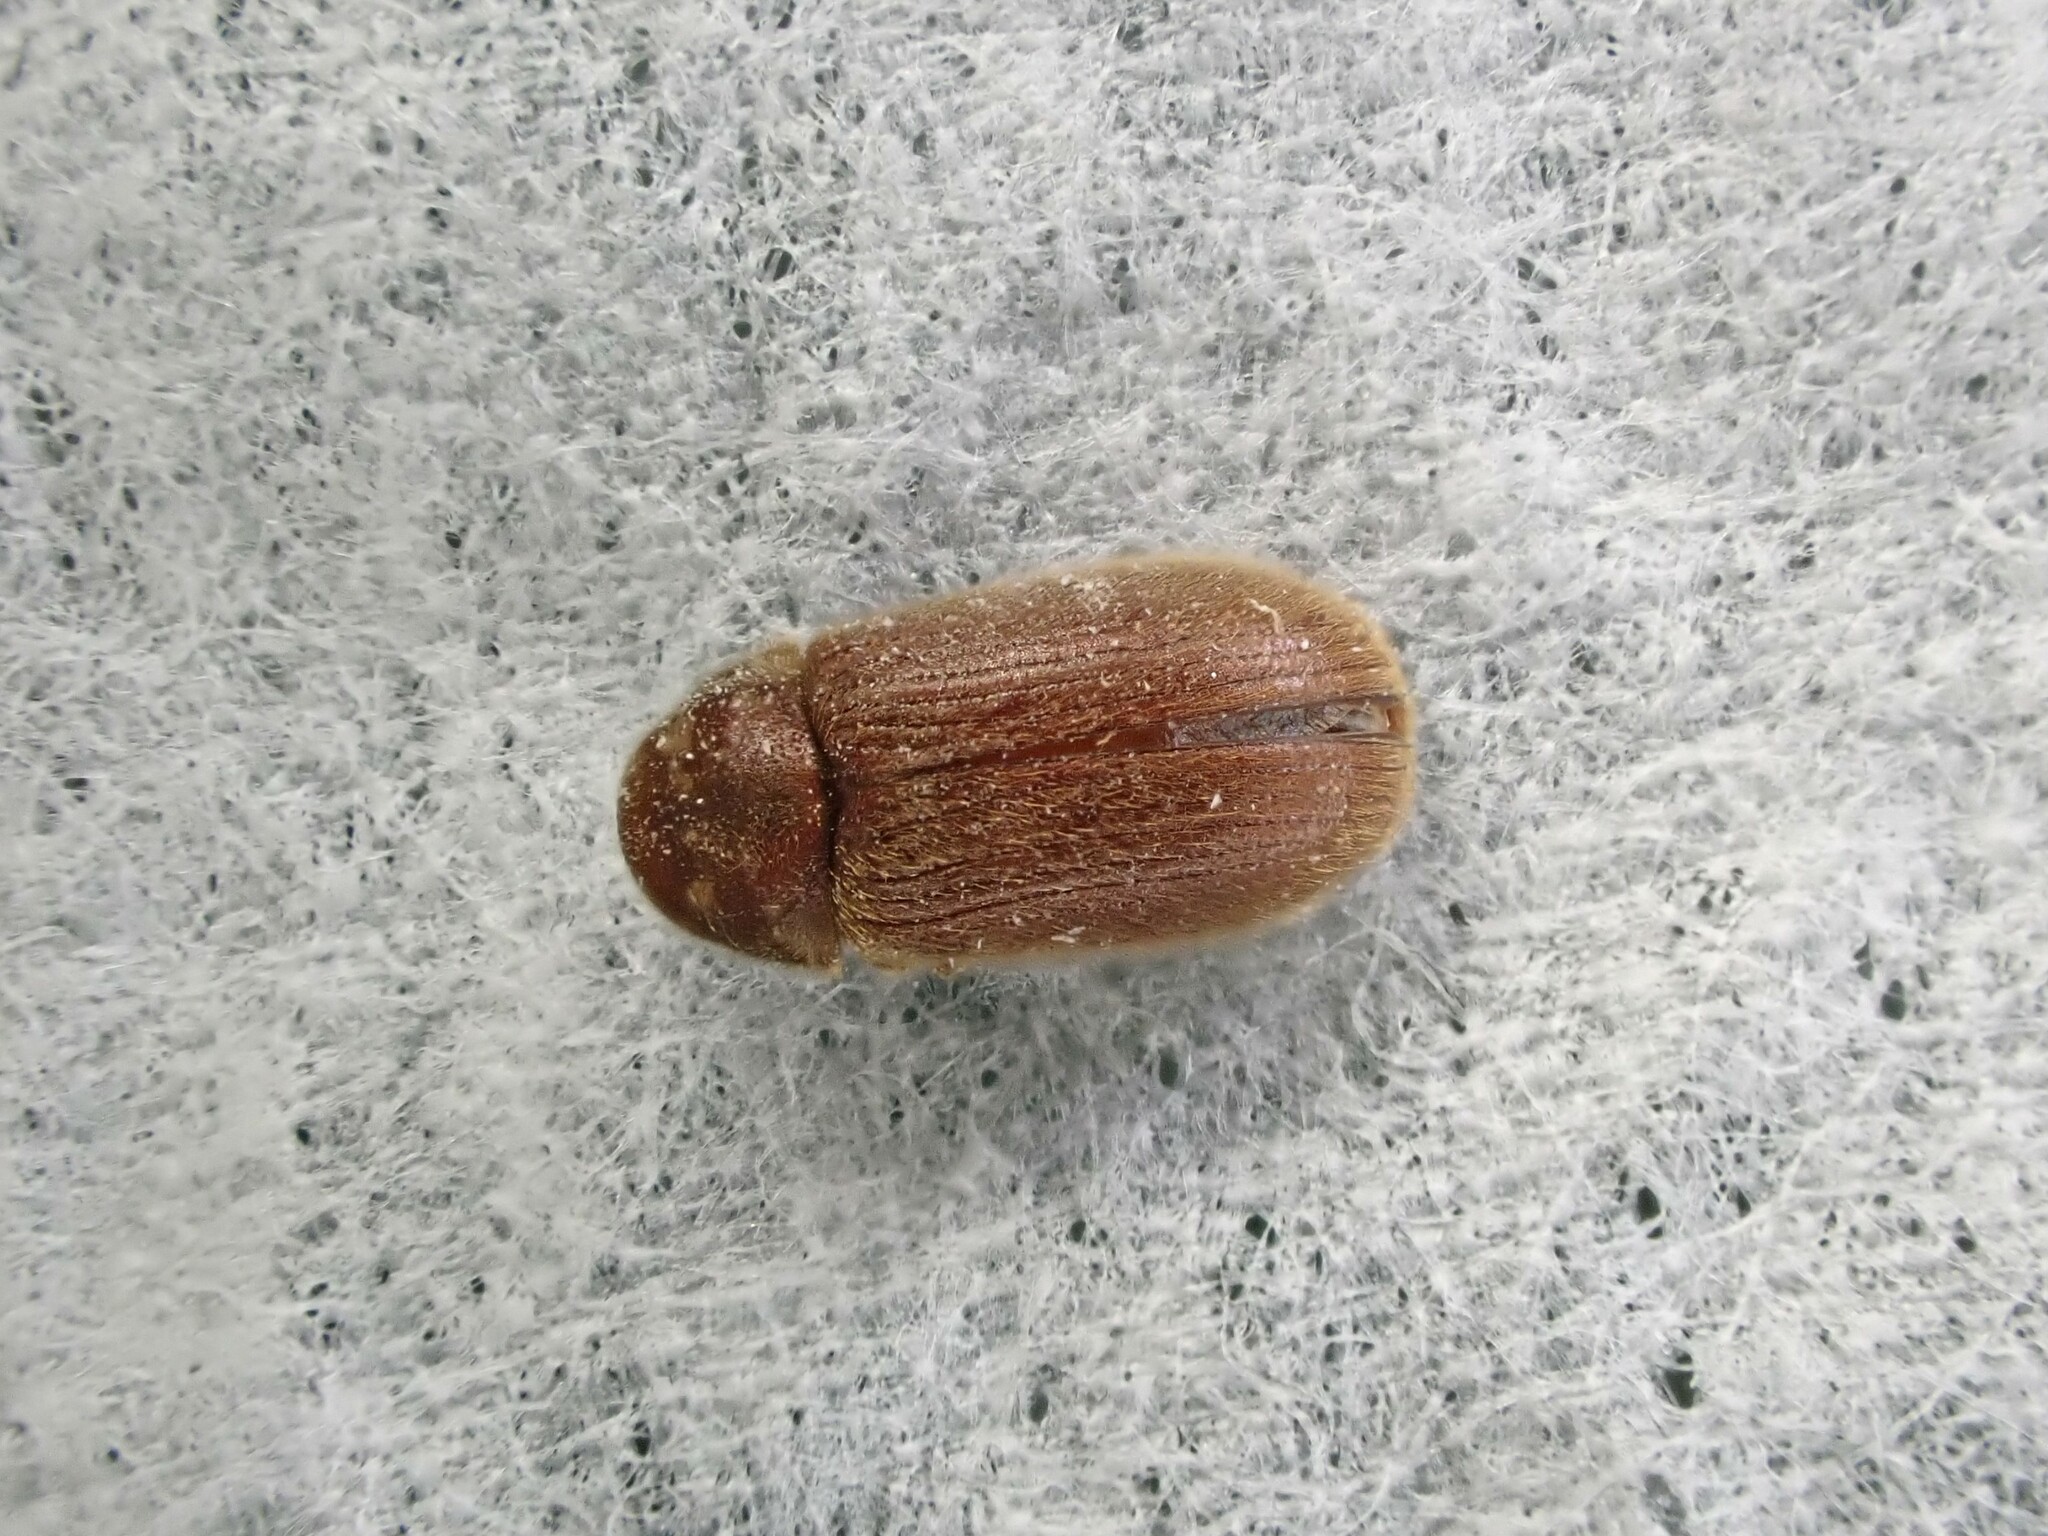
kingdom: Animalia
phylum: Arthropoda
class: Insecta
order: Coleoptera
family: Anobiidae
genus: Stegobium
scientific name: Stegobium paniceum
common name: Drugstore beetle
